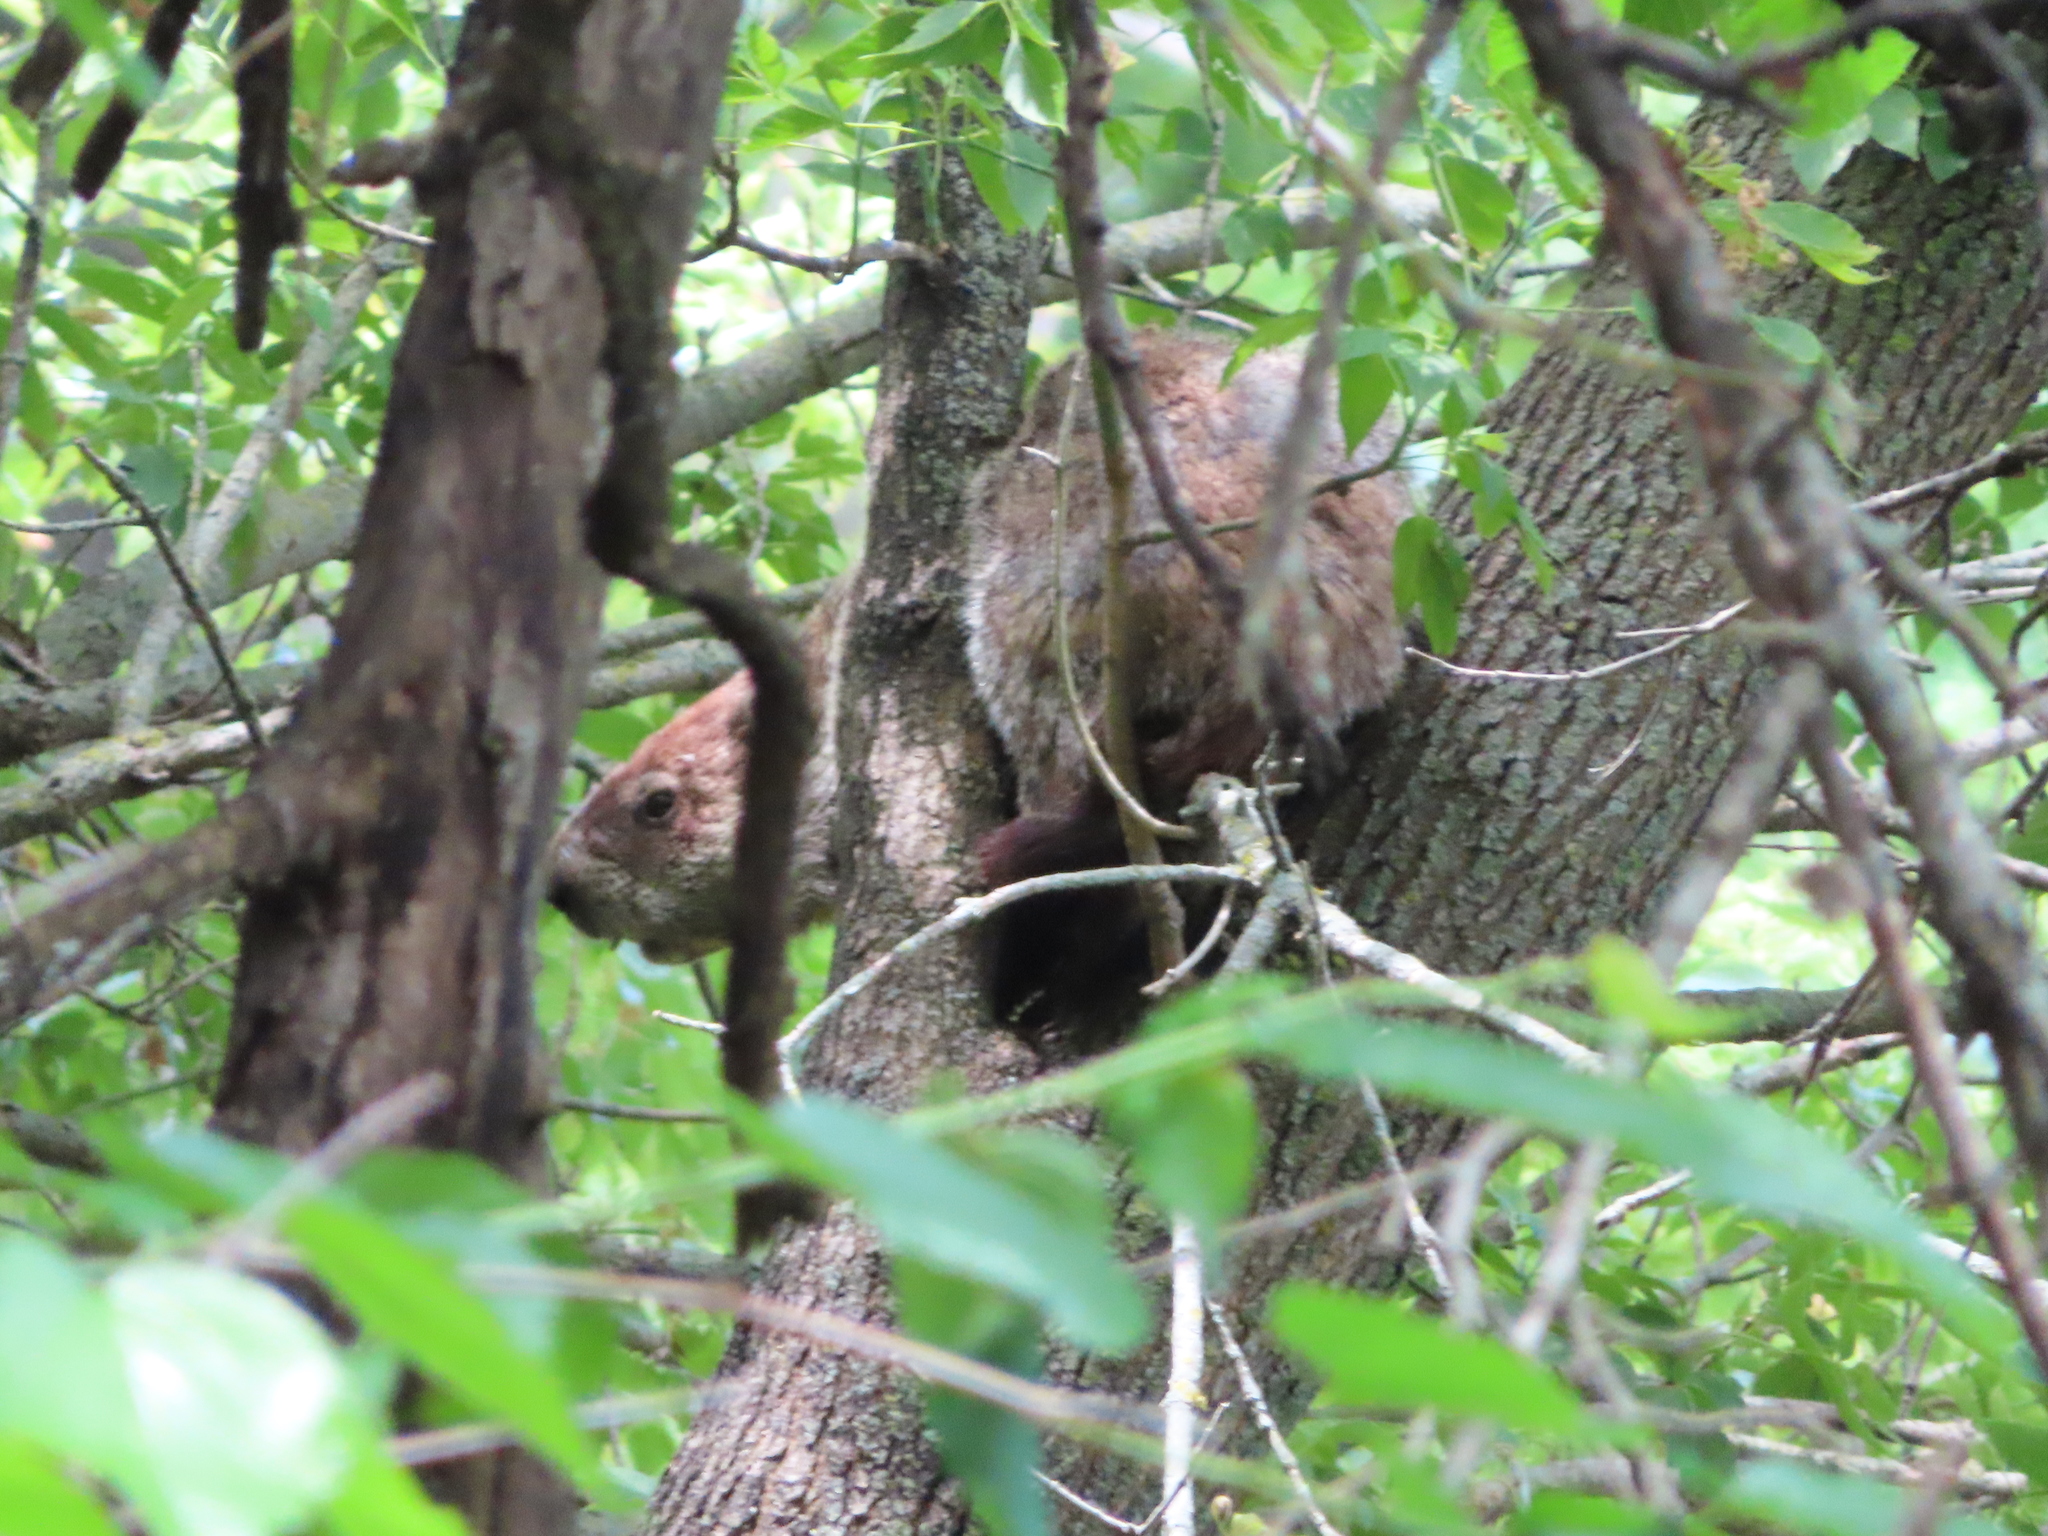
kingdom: Animalia
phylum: Chordata
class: Mammalia
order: Rodentia
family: Sciuridae
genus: Marmota
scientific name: Marmota monax
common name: Groundhog
